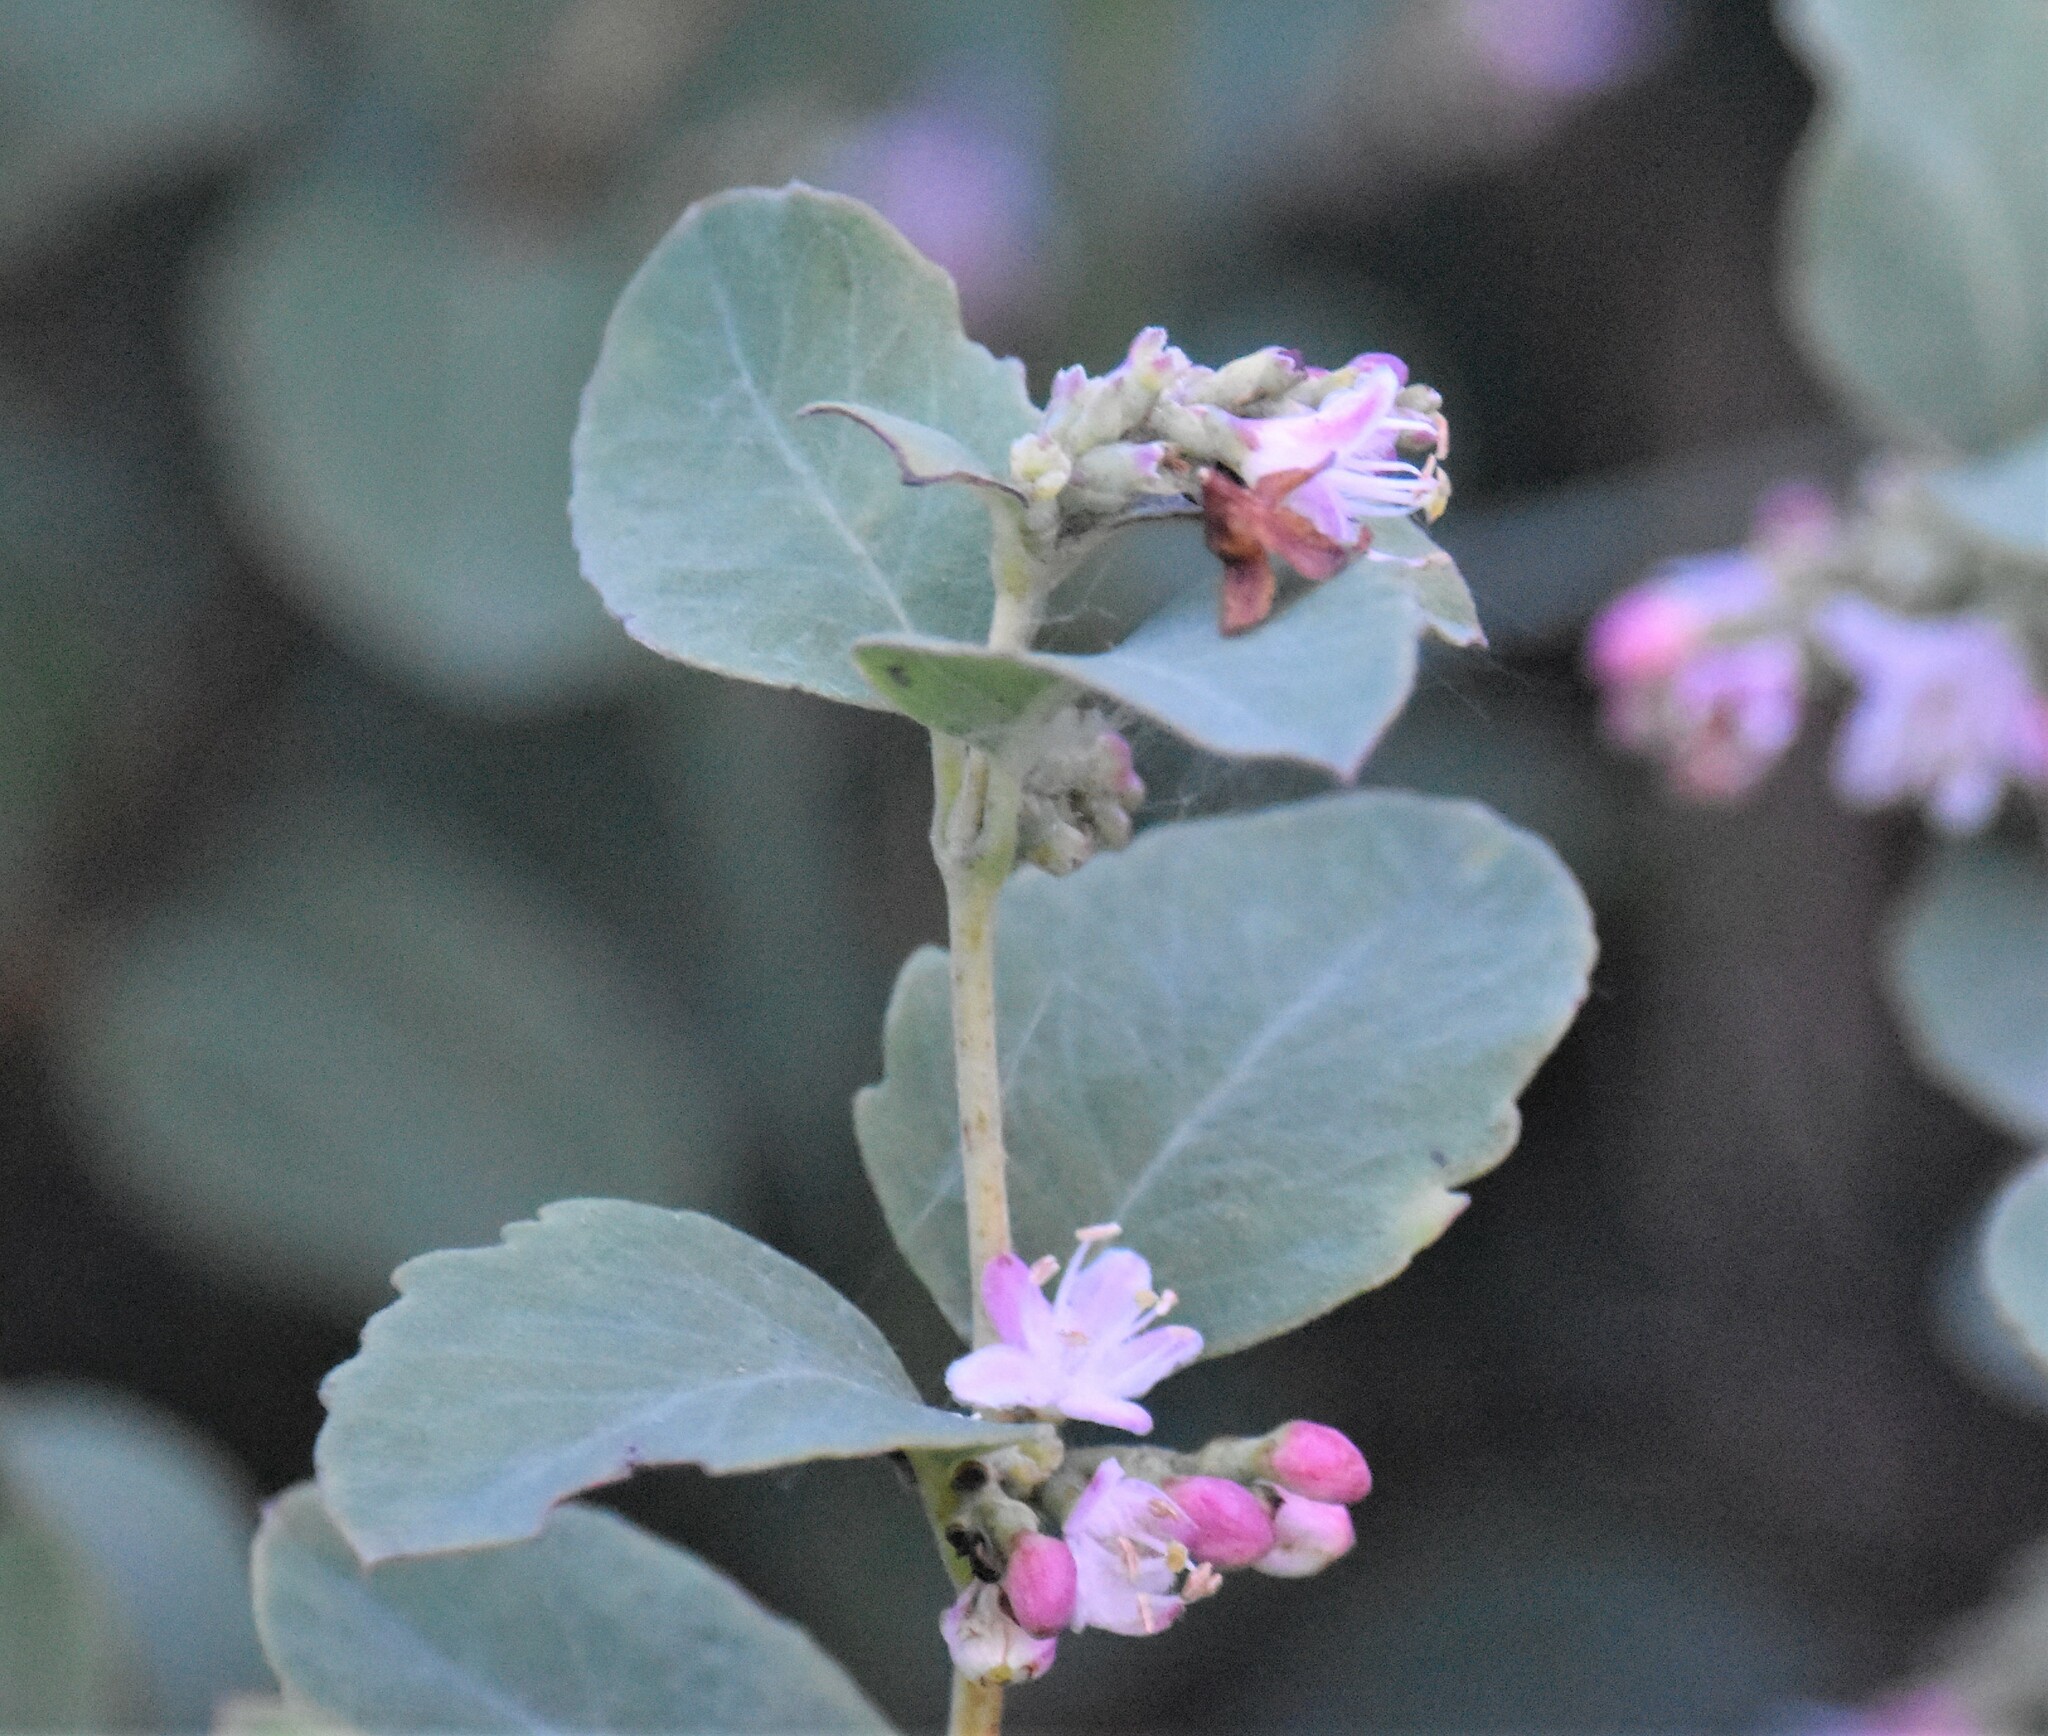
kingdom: Plantae
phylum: Tracheophyta
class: Magnoliopsida
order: Dipsacales
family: Caprifoliaceae
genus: Symphoricarpos
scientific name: Symphoricarpos occidentalis
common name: Wolfberry
